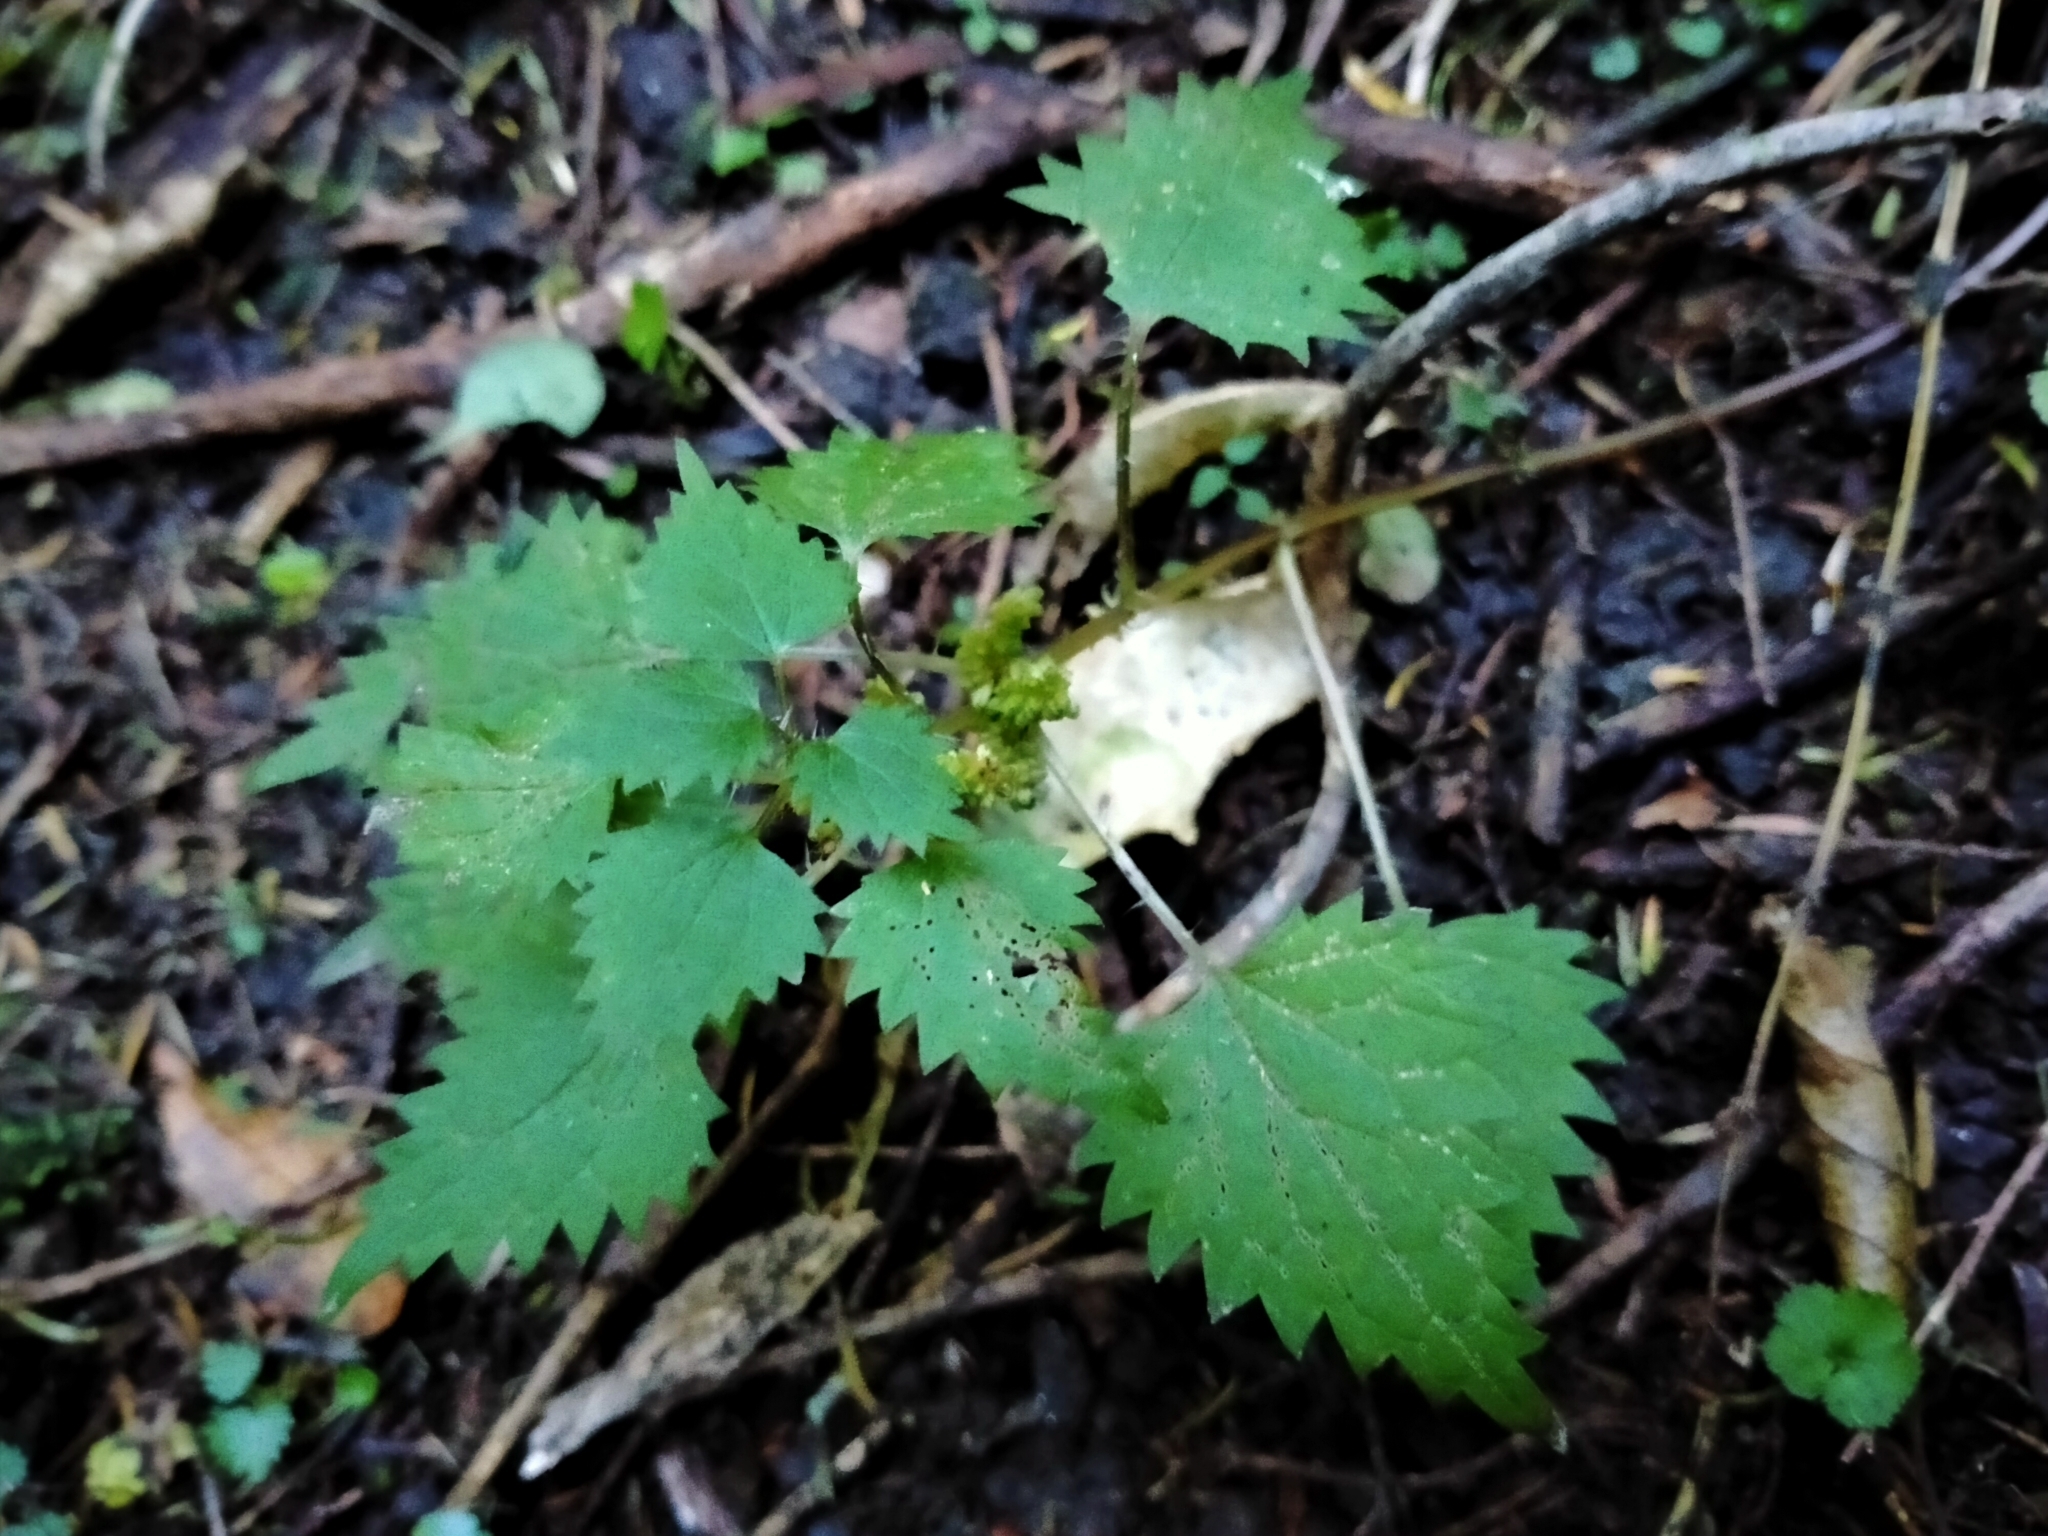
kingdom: Plantae
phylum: Tracheophyta
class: Magnoliopsida
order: Rosales
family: Urticaceae
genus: Urtica
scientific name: Urtica sykesii
